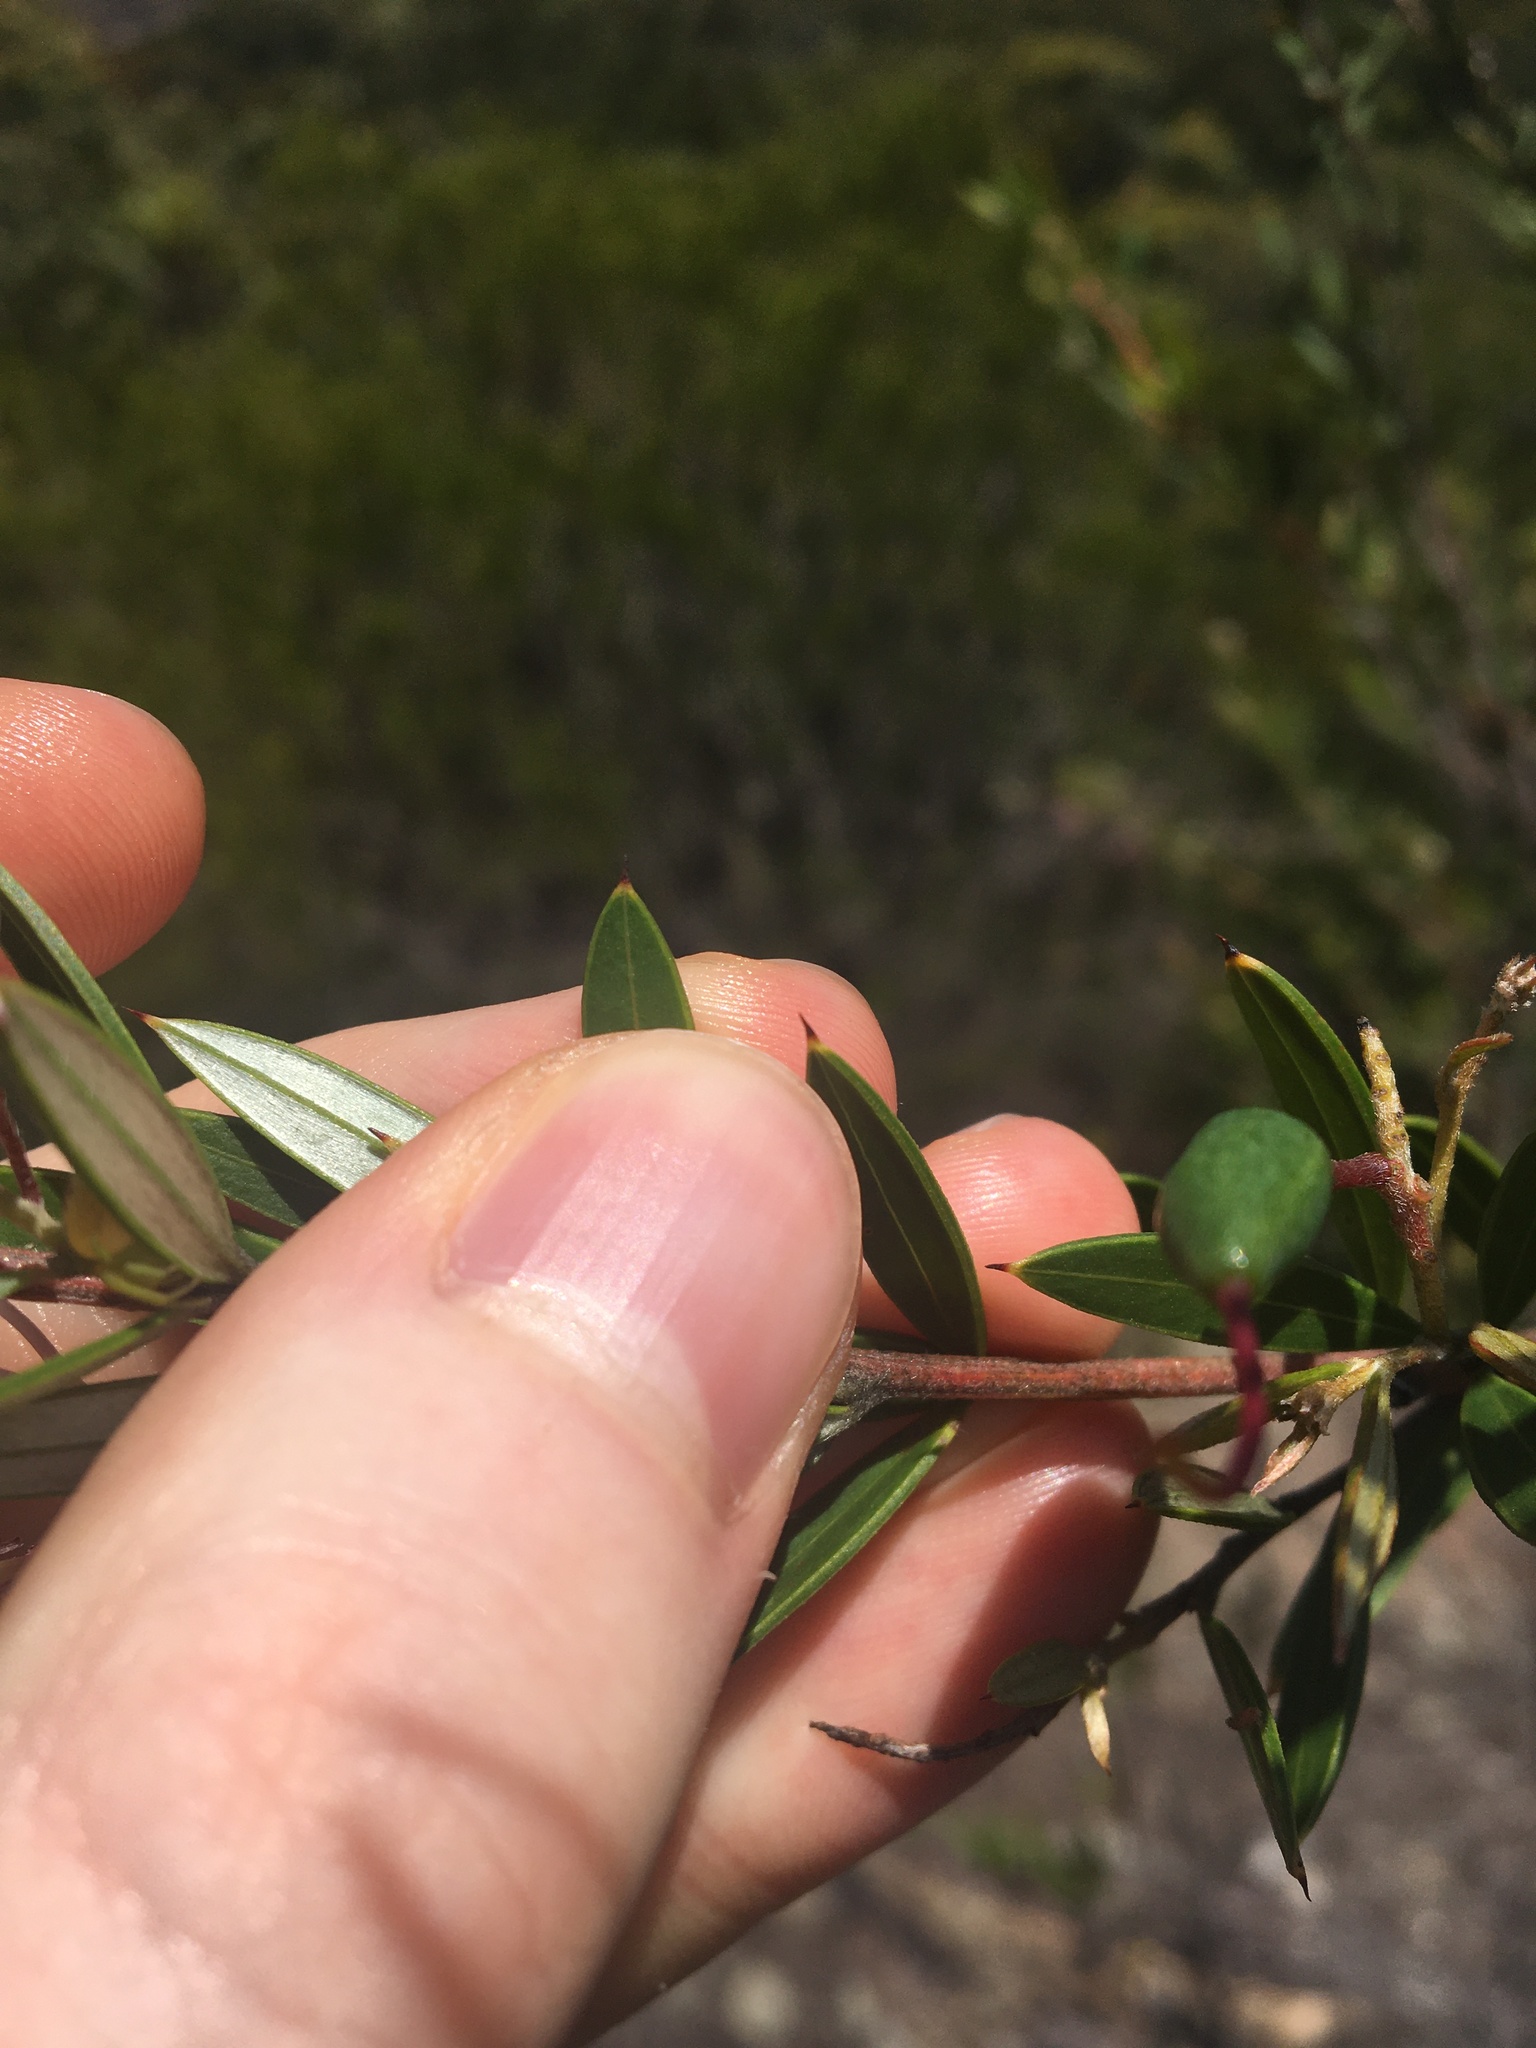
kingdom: Plantae
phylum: Tracheophyta
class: Magnoliopsida
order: Proteales
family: Proteaceae
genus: Grevillea
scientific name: Grevillea sericea
